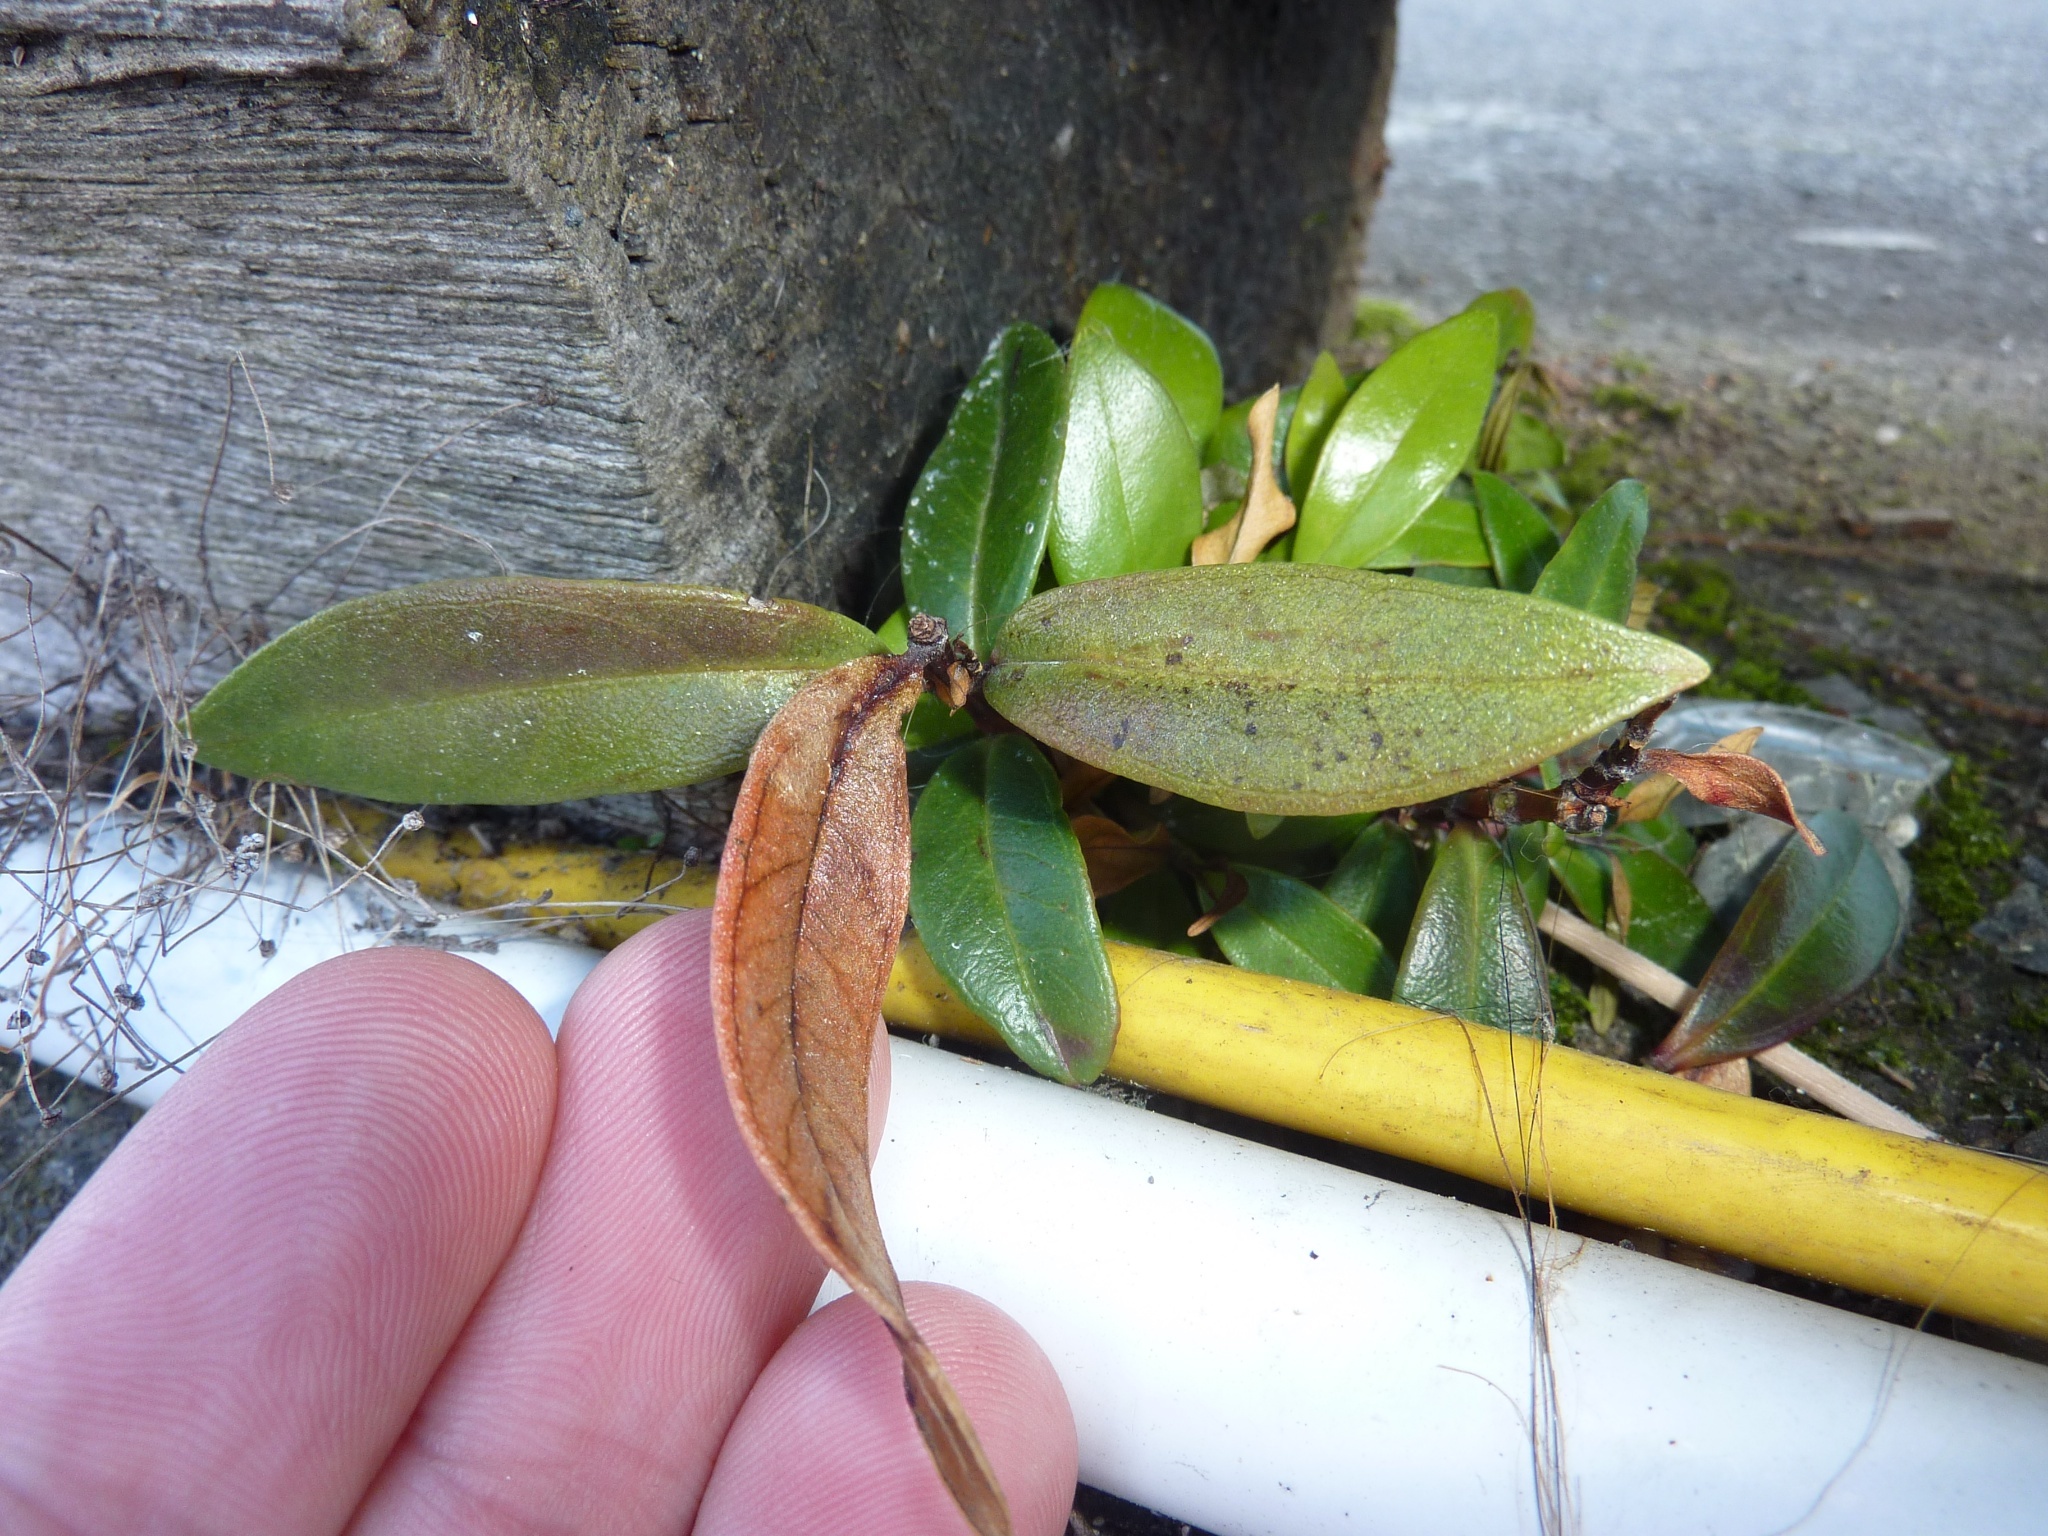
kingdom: Plantae
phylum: Tracheophyta
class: Magnoliopsida
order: Myrtales
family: Myrtaceae
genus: Metrosideros
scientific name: Metrosideros excelsa
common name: New zealand christmastree
